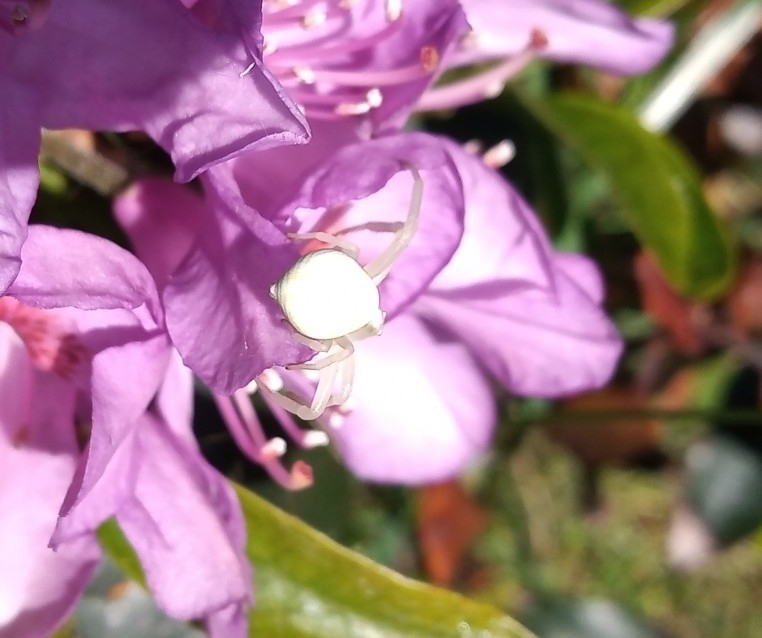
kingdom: Animalia
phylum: Arthropoda
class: Arachnida
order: Araneae
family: Thomisidae
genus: Misumena
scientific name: Misumena vatia
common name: Goldenrod crab spider
